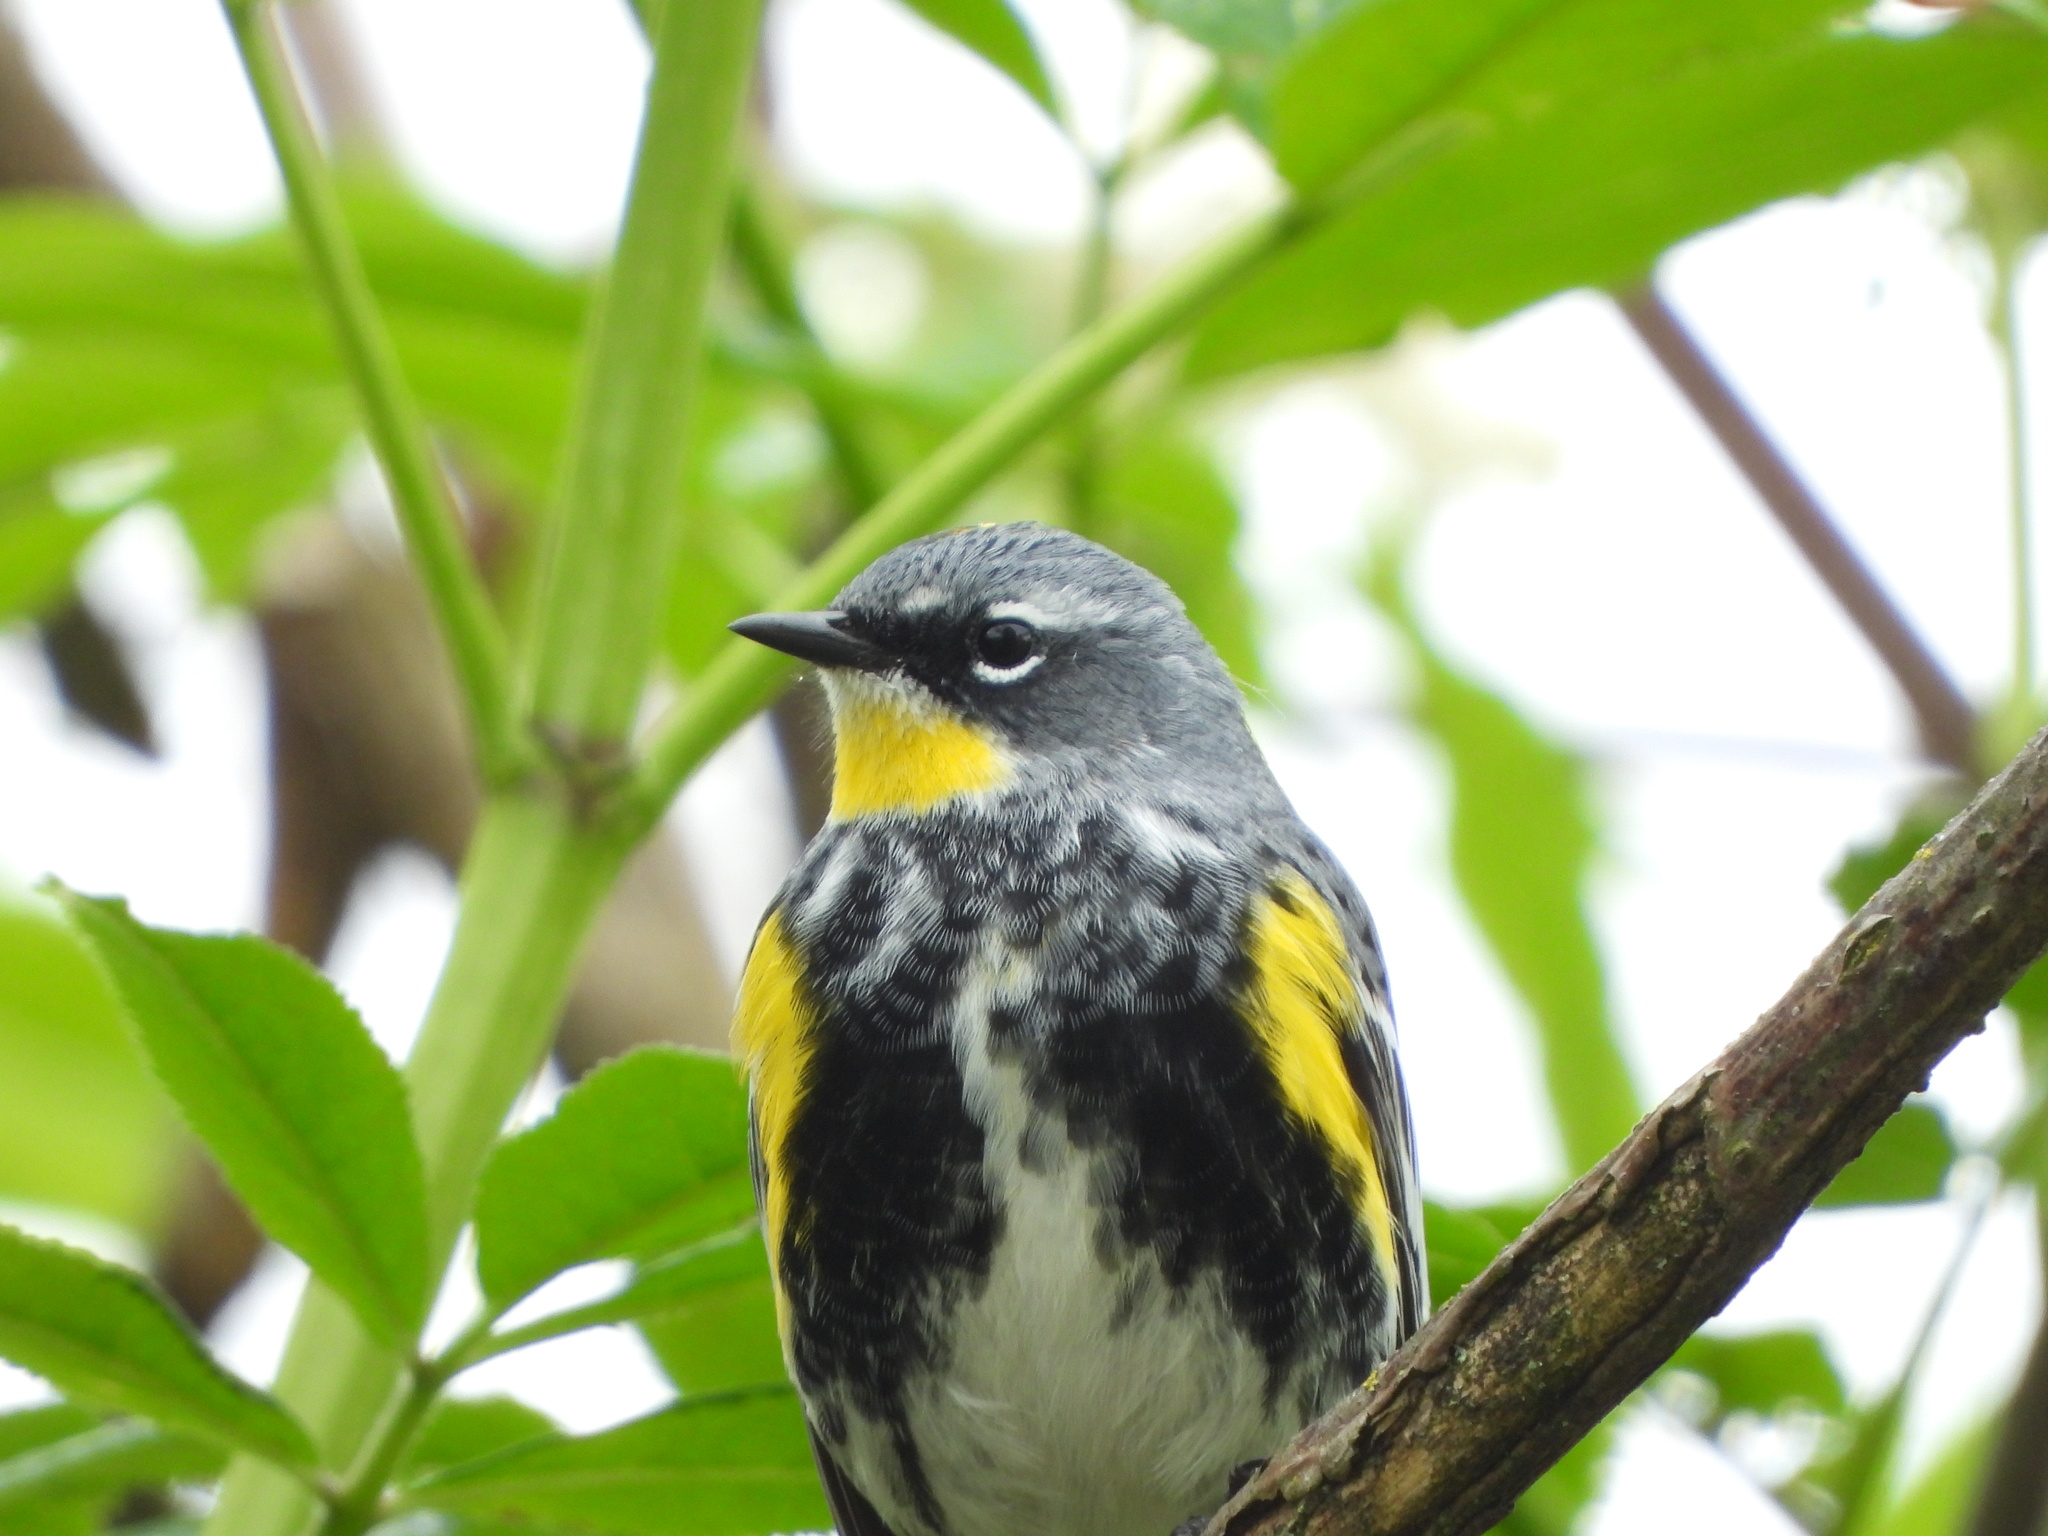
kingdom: Animalia
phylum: Chordata
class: Aves
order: Passeriformes
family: Parulidae
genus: Setophaga
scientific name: Setophaga
